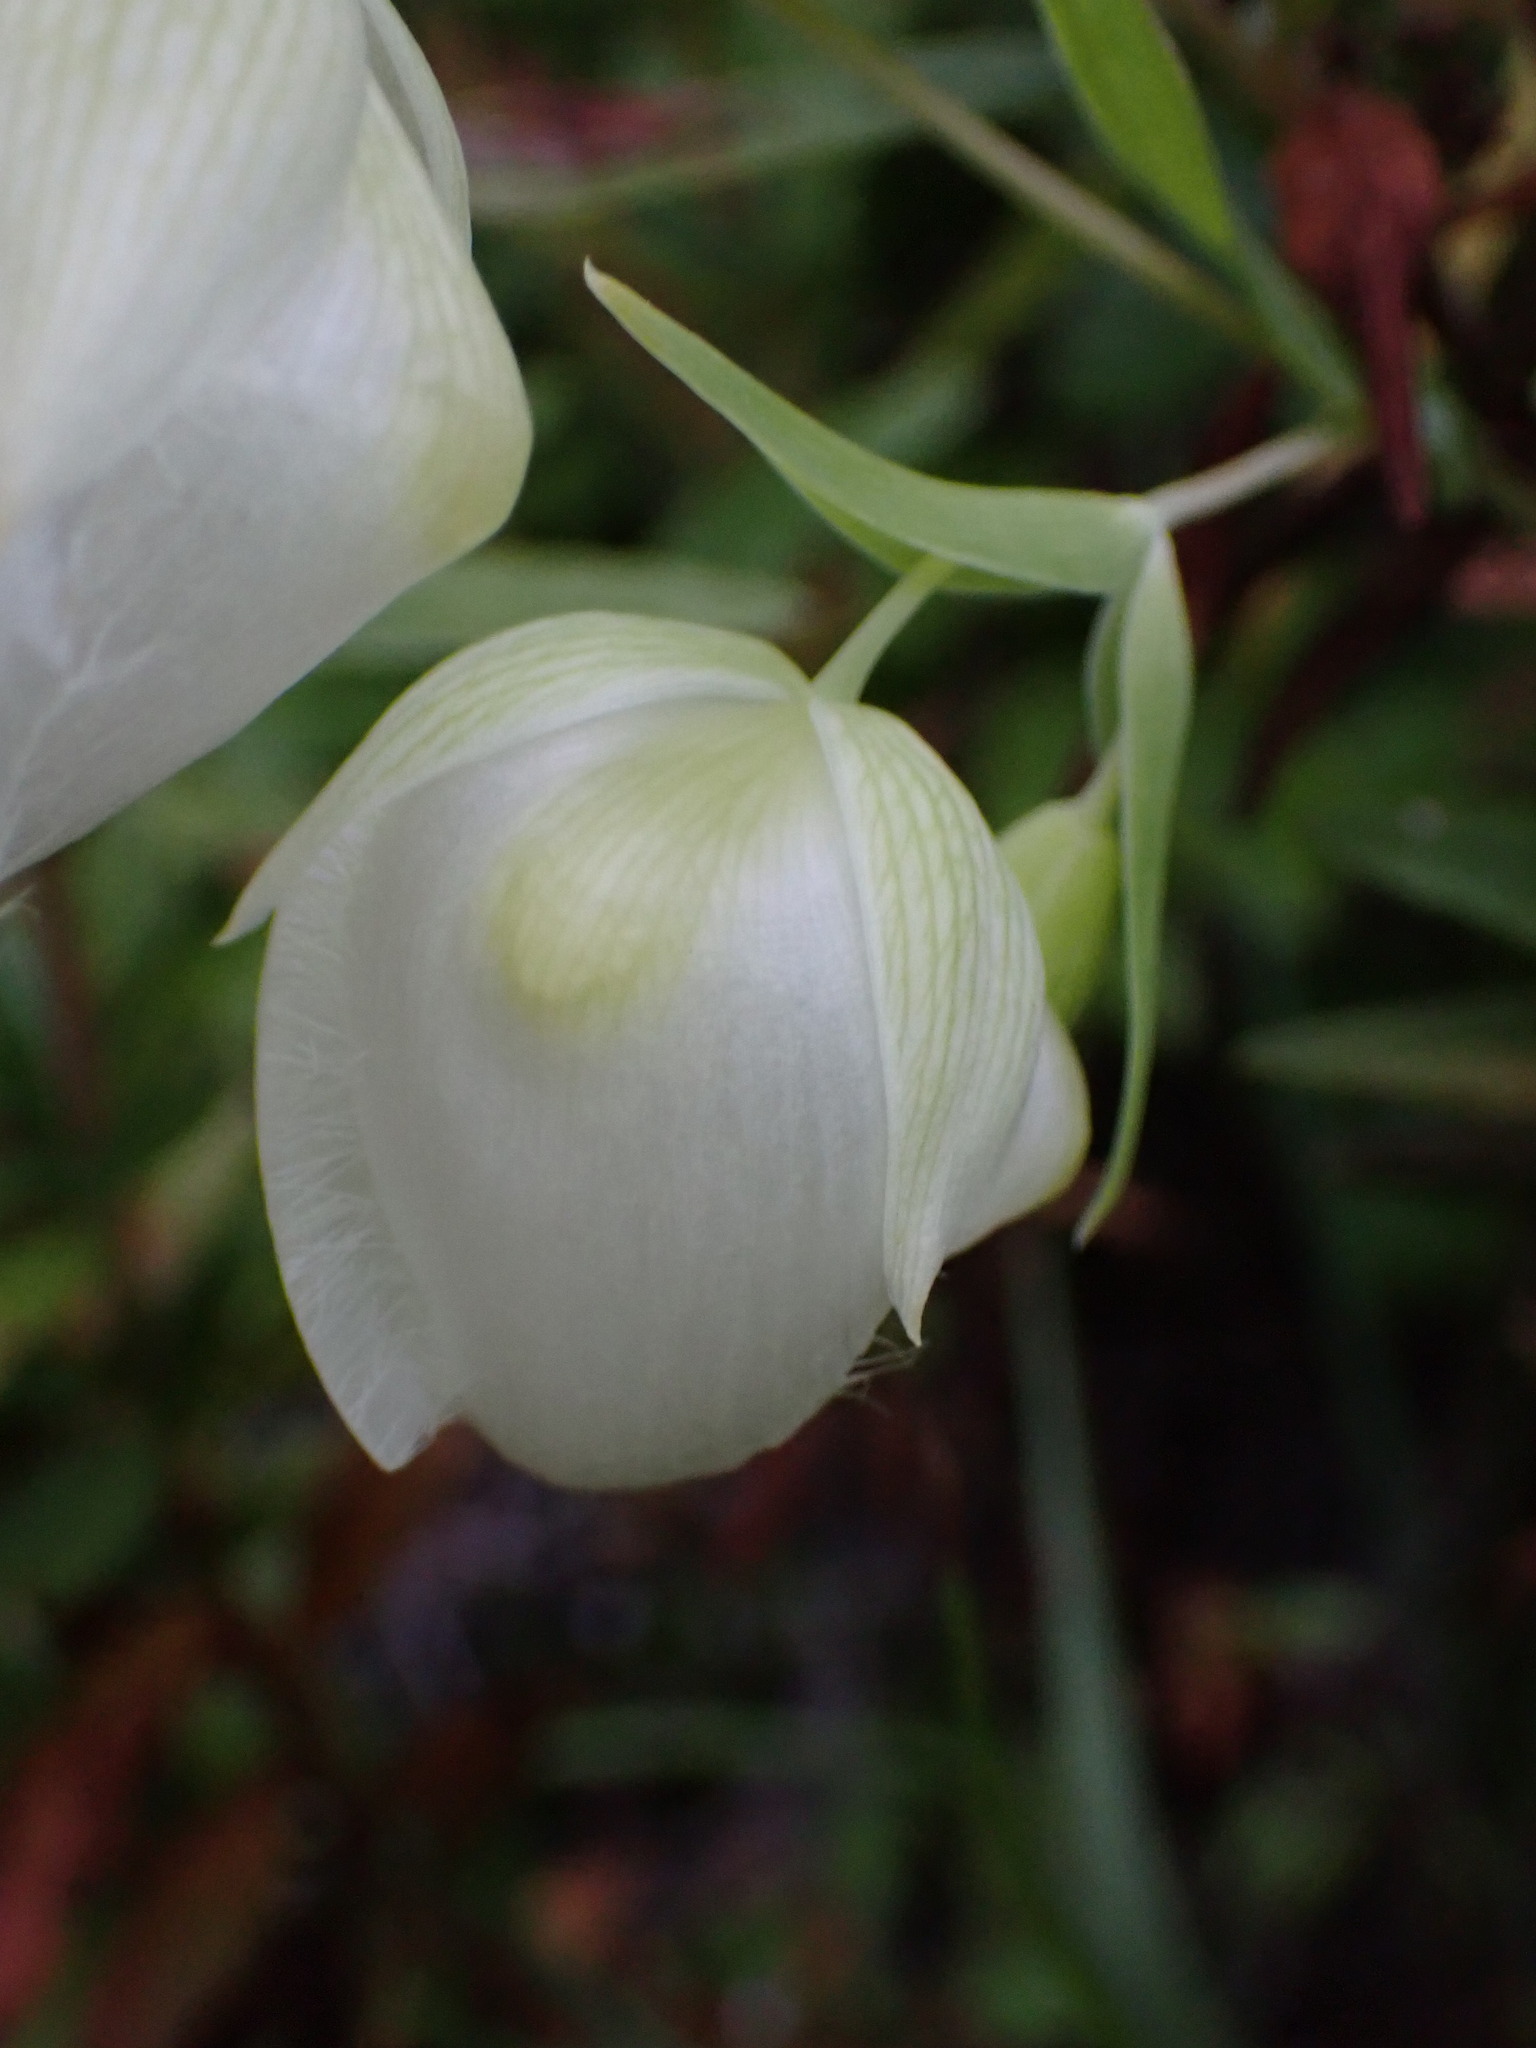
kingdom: Plantae
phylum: Tracheophyta
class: Liliopsida
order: Liliales
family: Liliaceae
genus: Calochortus
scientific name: Calochortus albus
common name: Fairy-lantern
